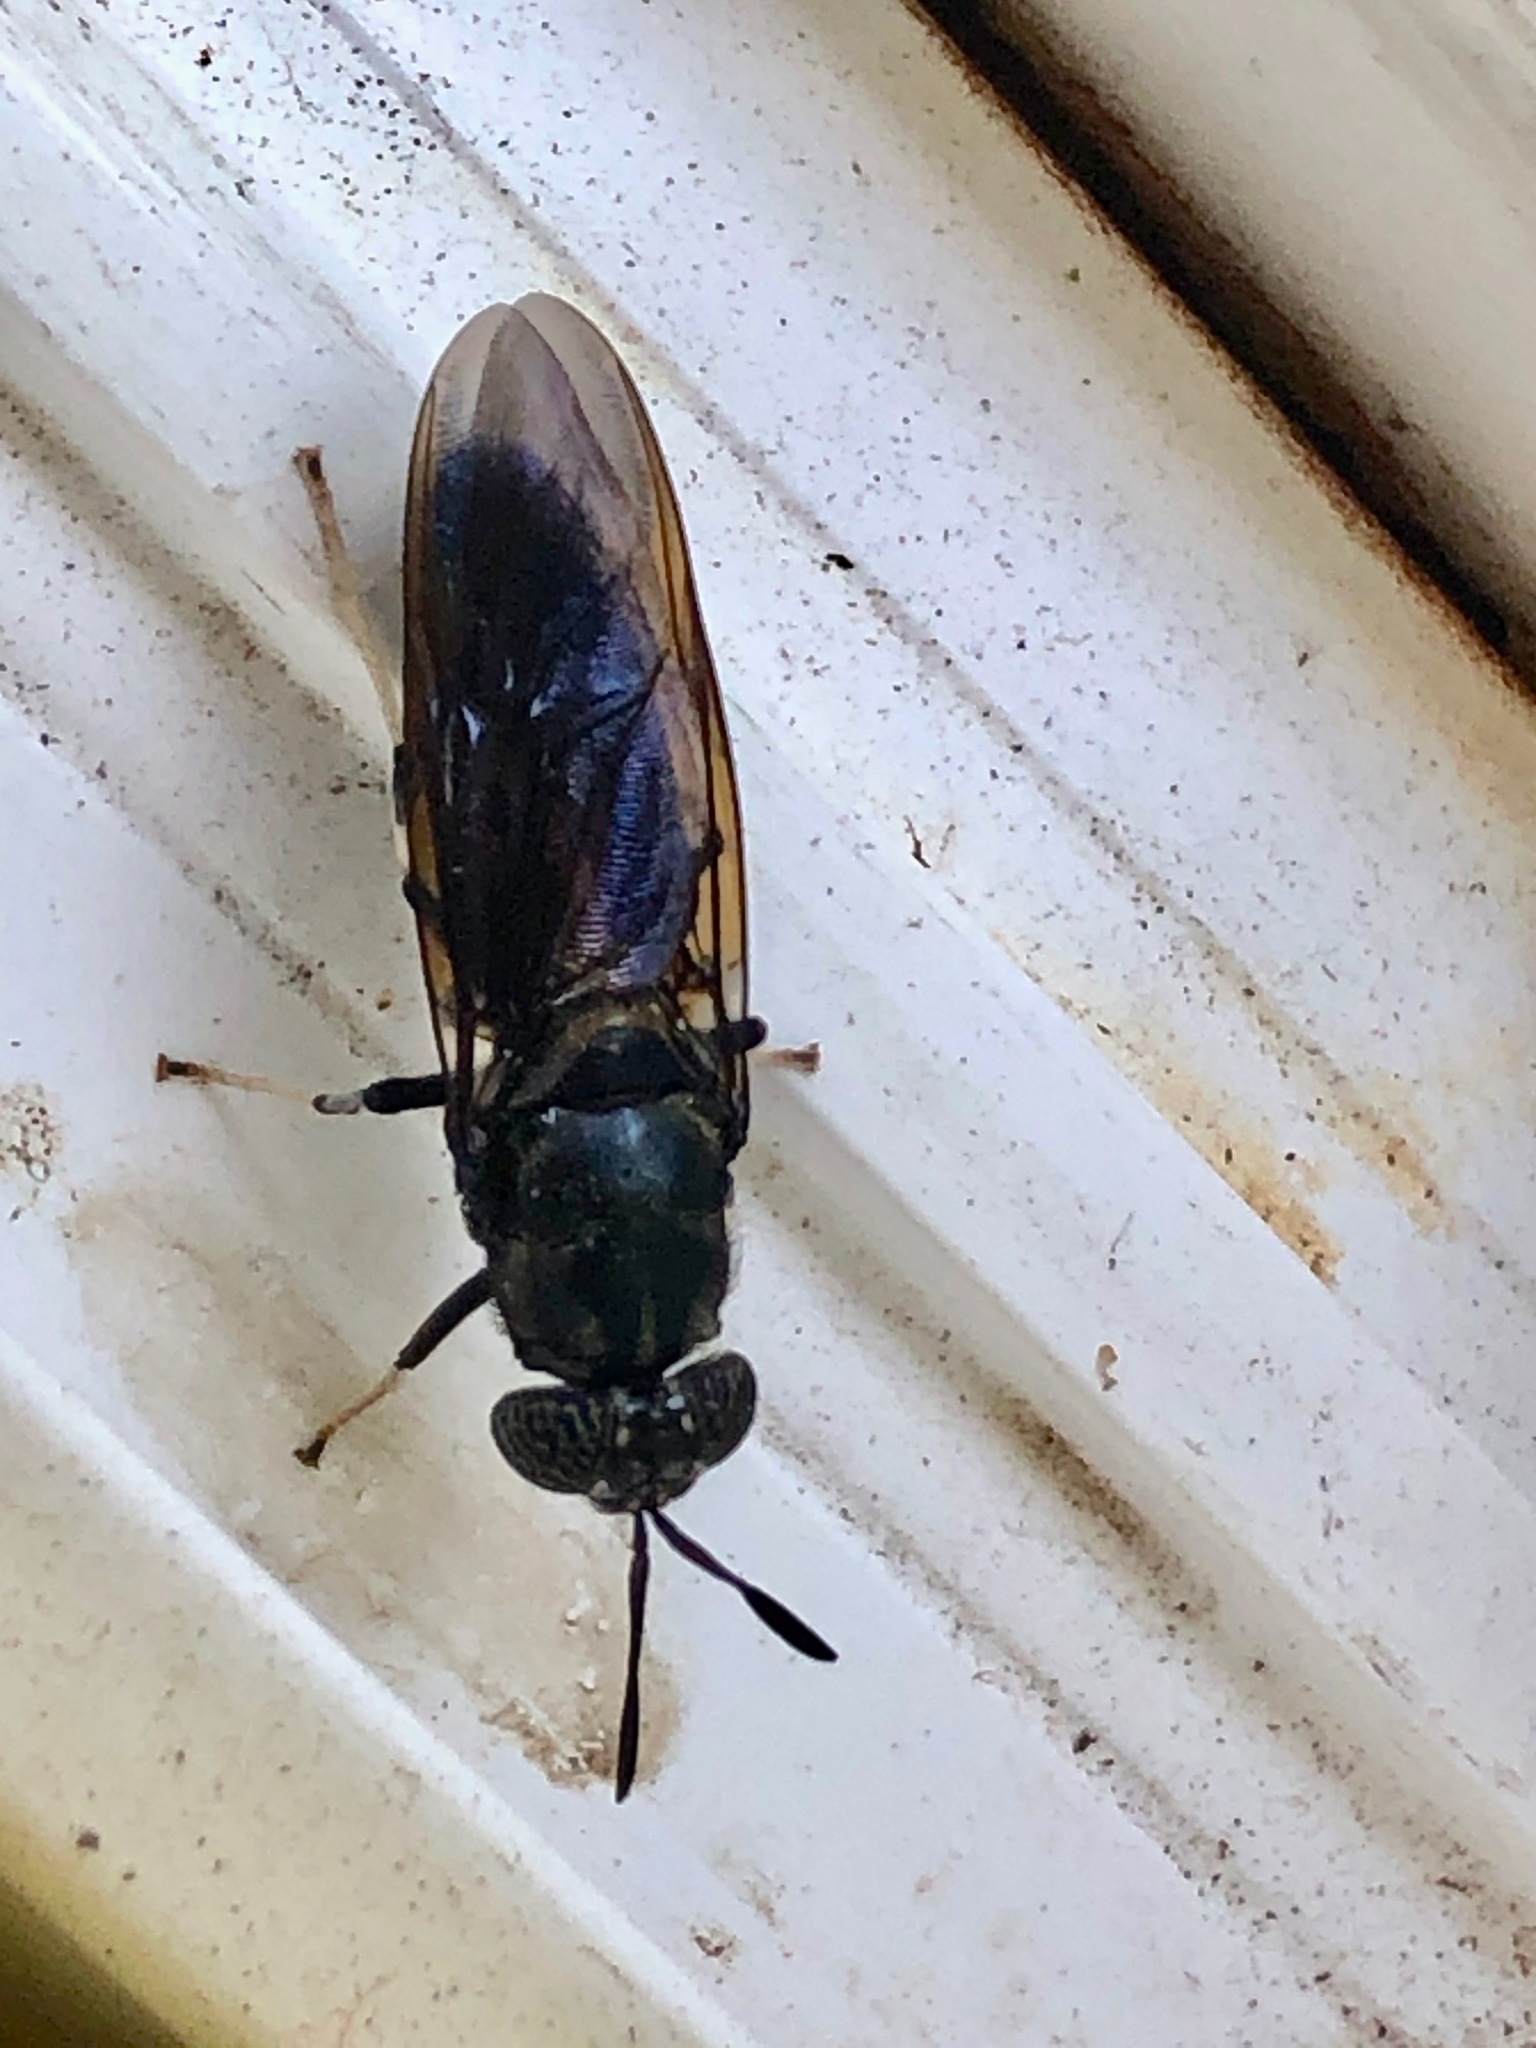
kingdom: Animalia
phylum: Arthropoda
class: Insecta
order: Diptera
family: Stratiomyidae
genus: Hermetia
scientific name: Hermetia illucens
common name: Black soldier fly
